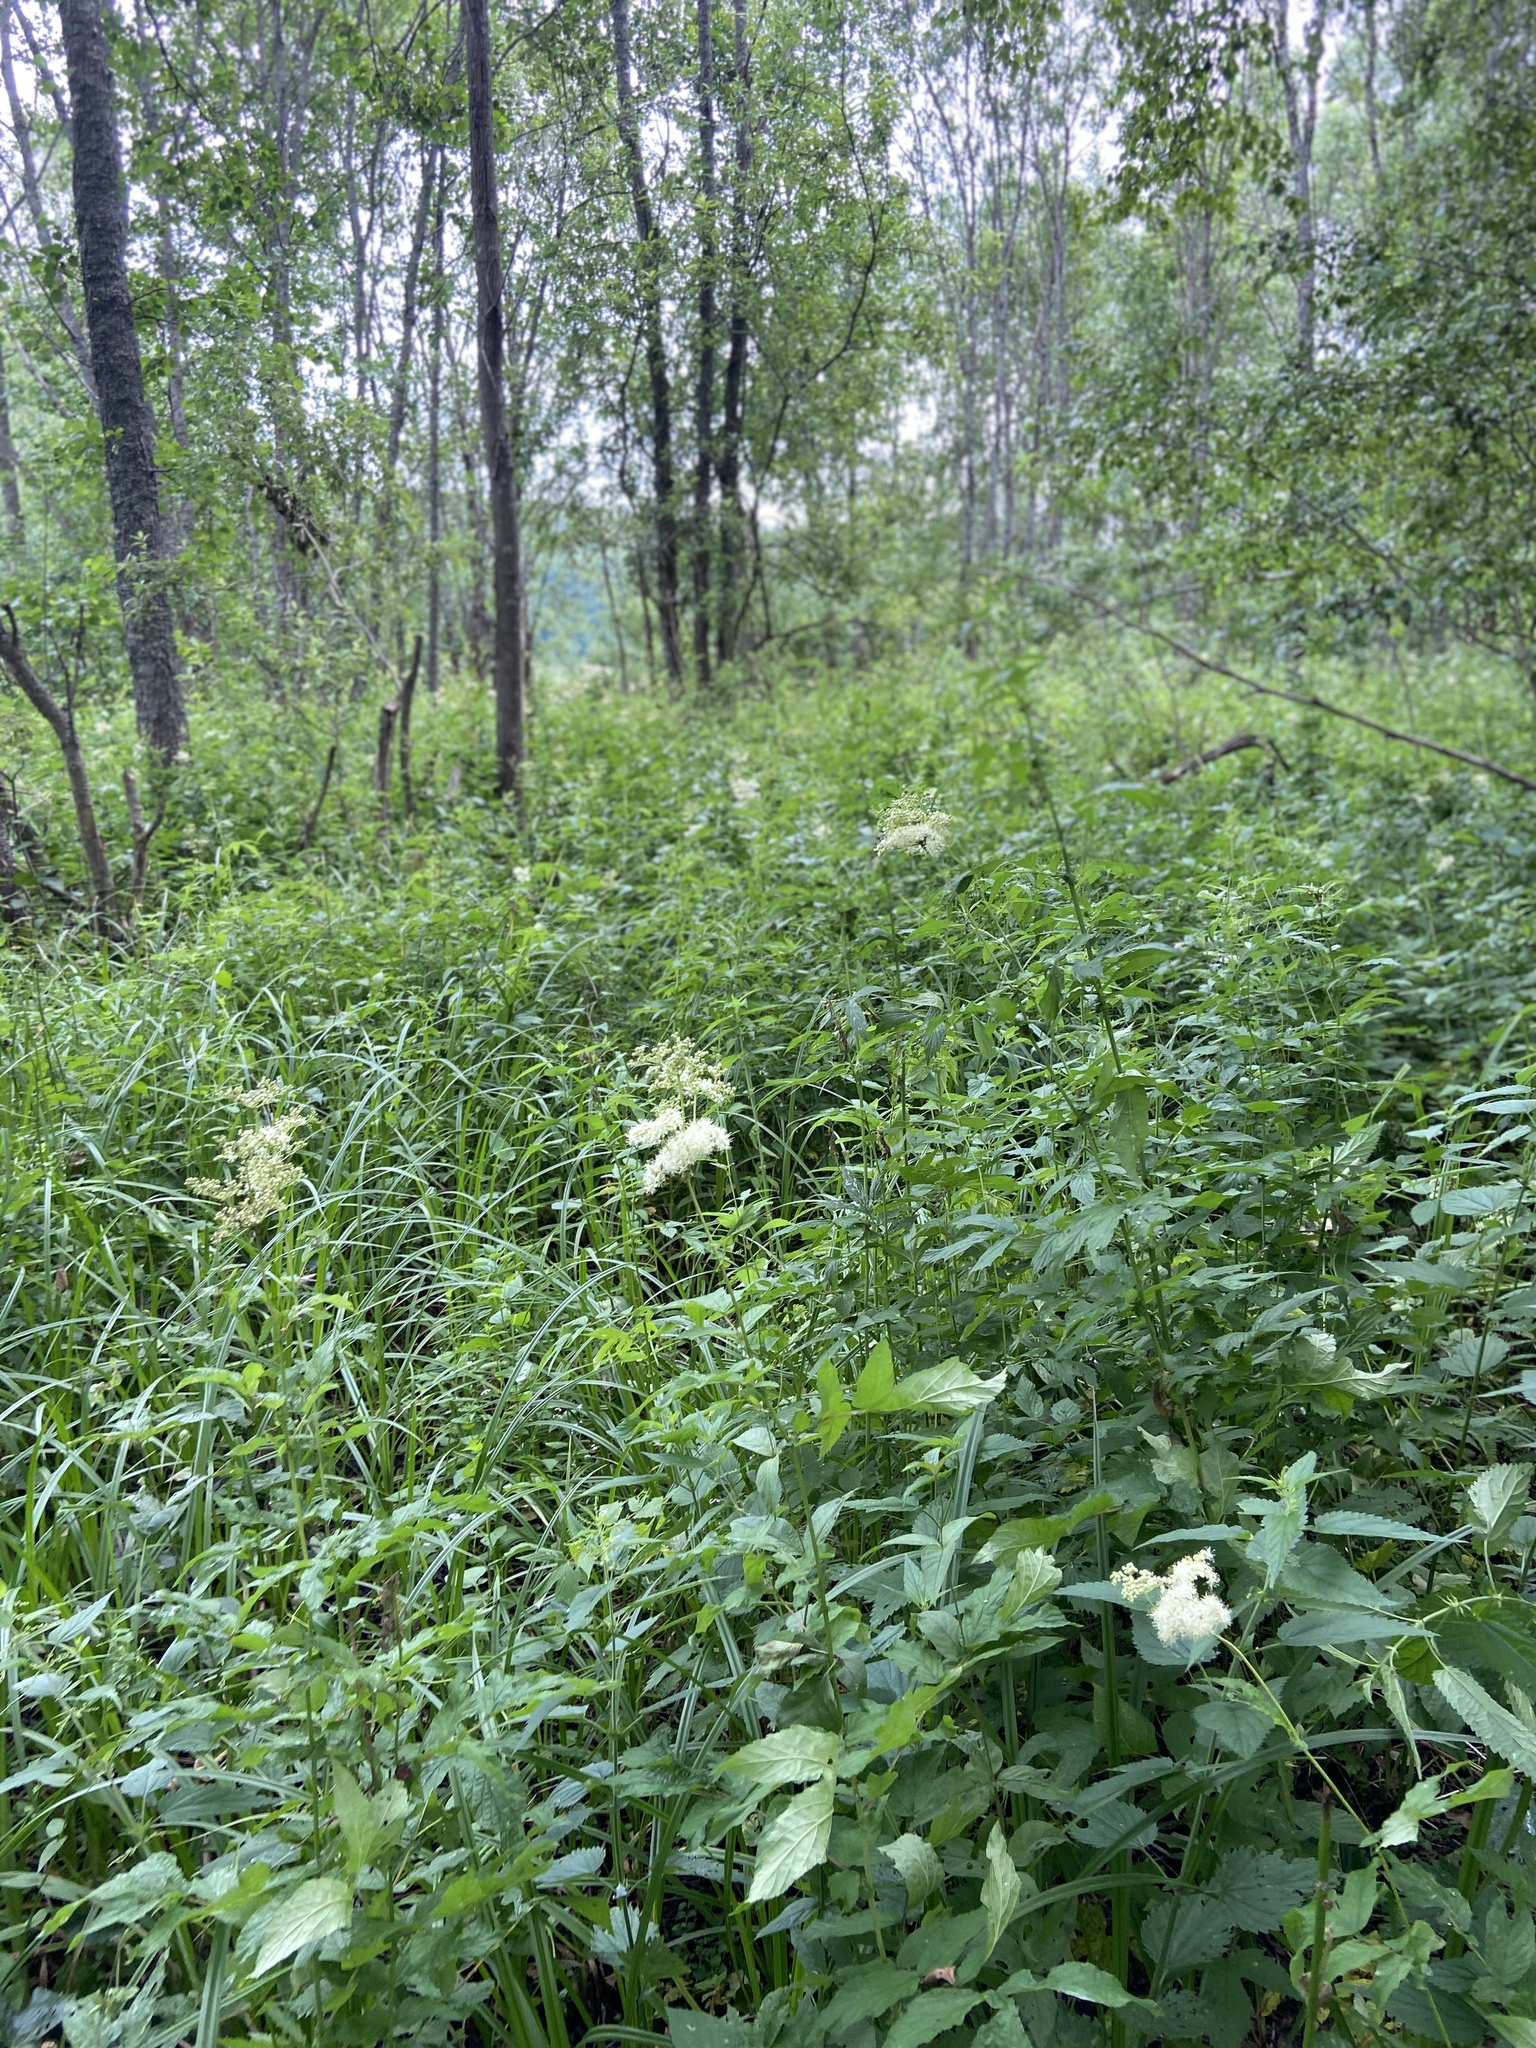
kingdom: Plantae
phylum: Tracheophyta
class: Magnoliopsida
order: Rosales
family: Rosaceae
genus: Filipendula
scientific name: Filipendula ulmaria
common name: Meadowsweet
